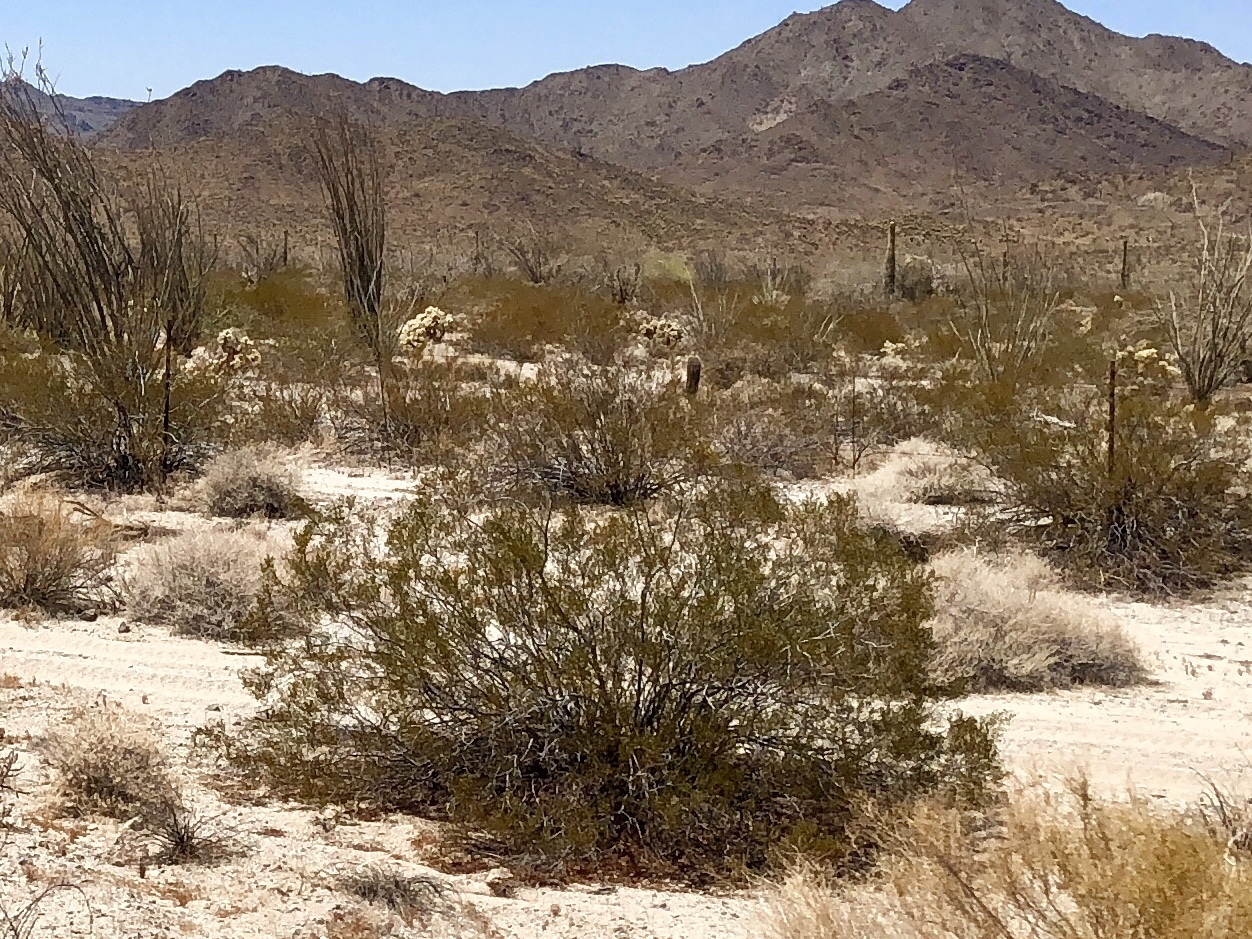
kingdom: Plantae
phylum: Tracheophyta
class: Magnoliopsida
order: Zygophyllales
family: Zygophyllaceae
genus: Larrea
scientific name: Larrea tridentata
